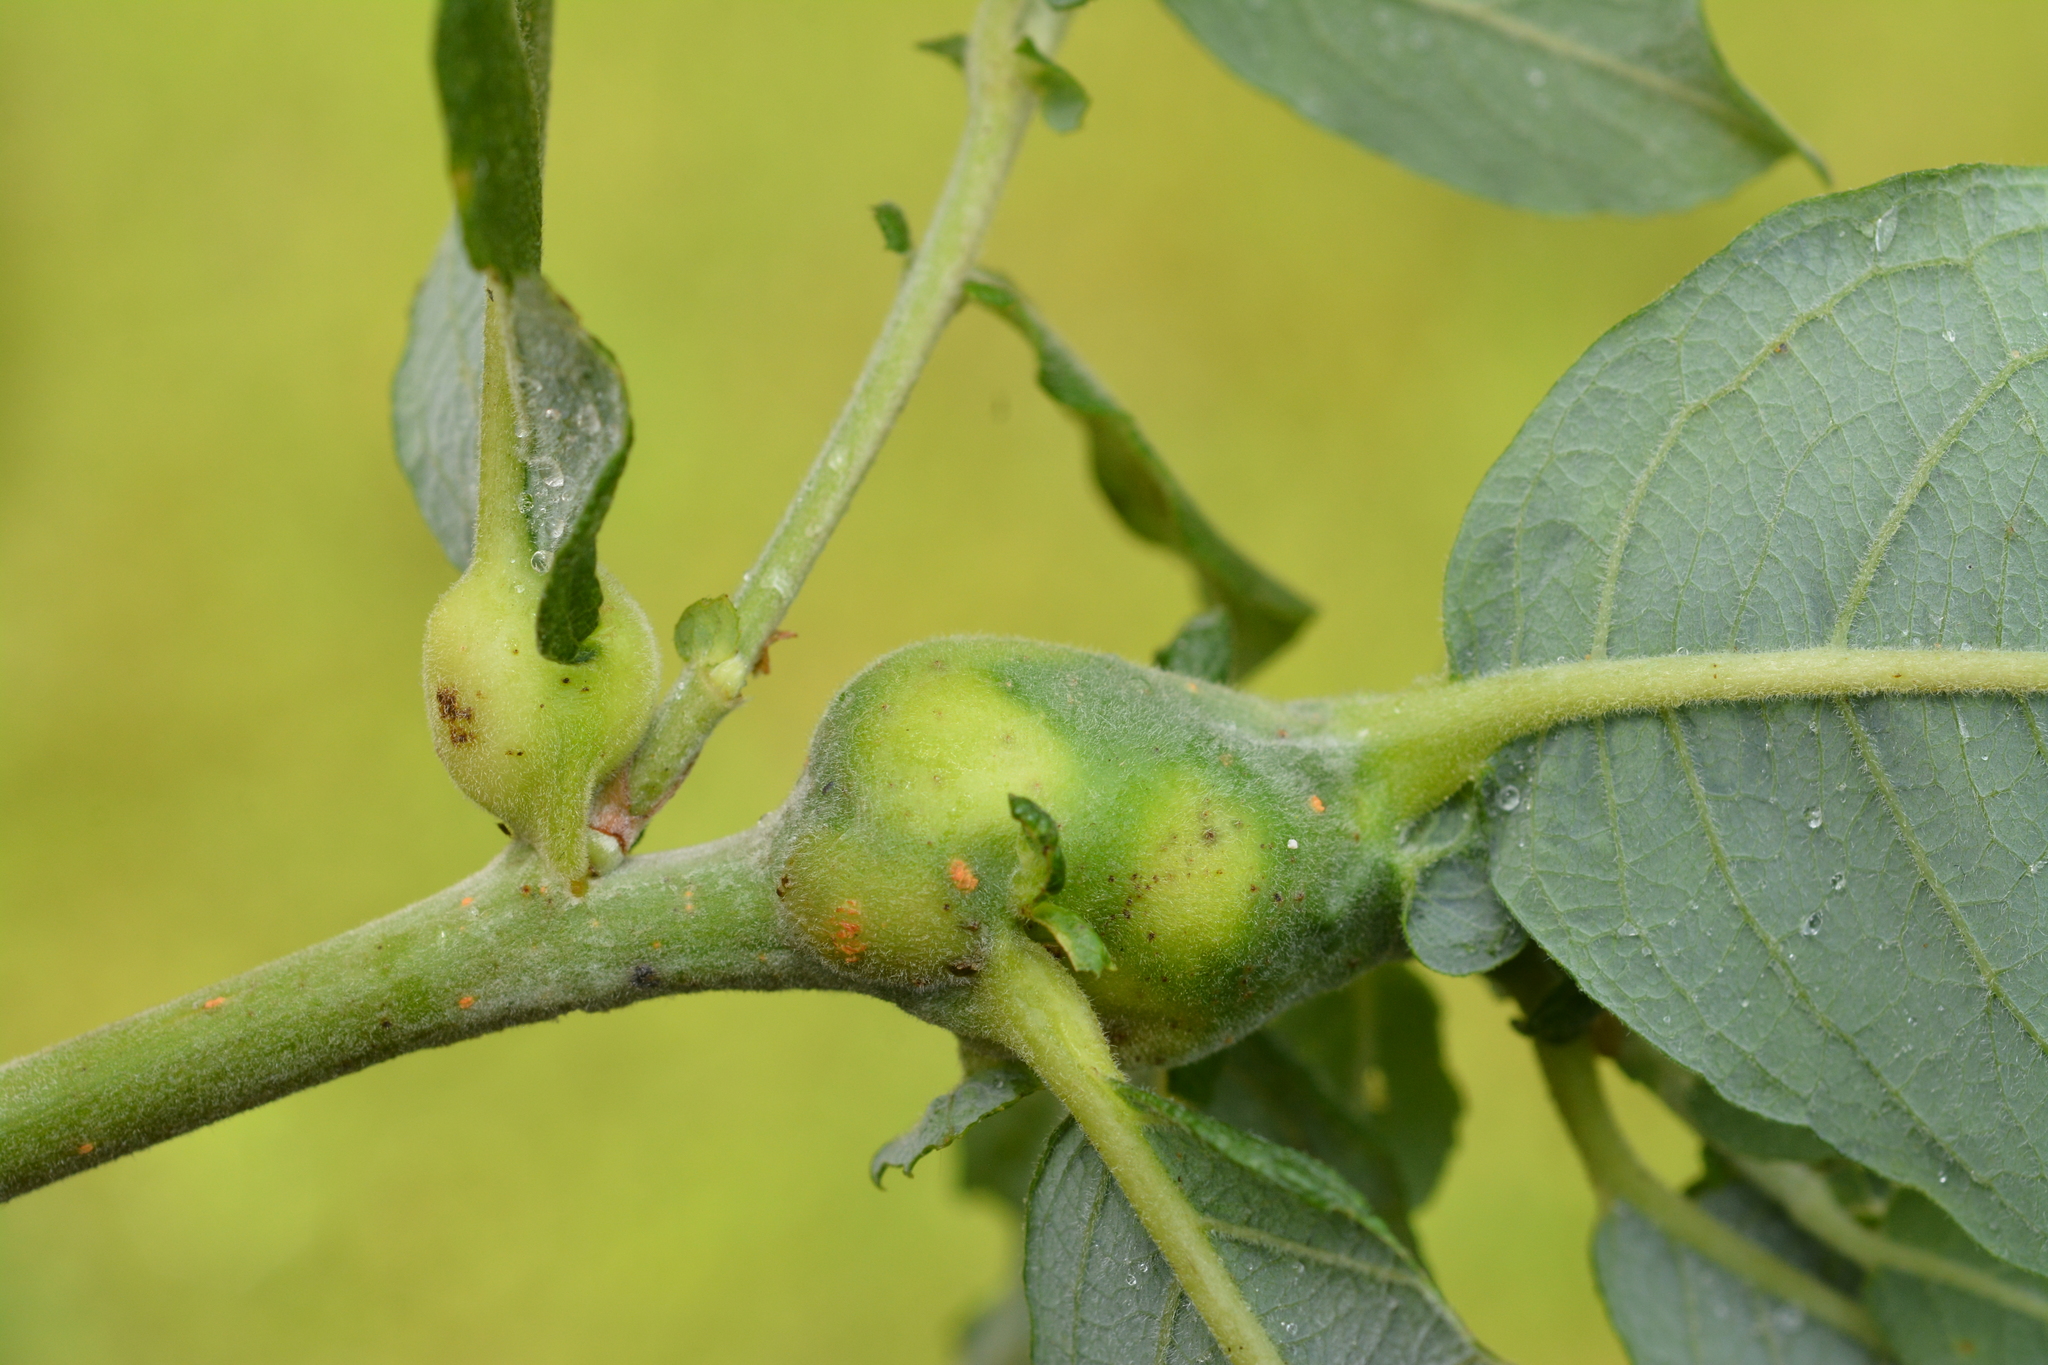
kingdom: Animalia
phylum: Arthropoda
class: Insecta
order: Diptera
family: Cecidomyiidae
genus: Rabdophaga
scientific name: Rabdophaga salicis
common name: Willow twig gall midge
